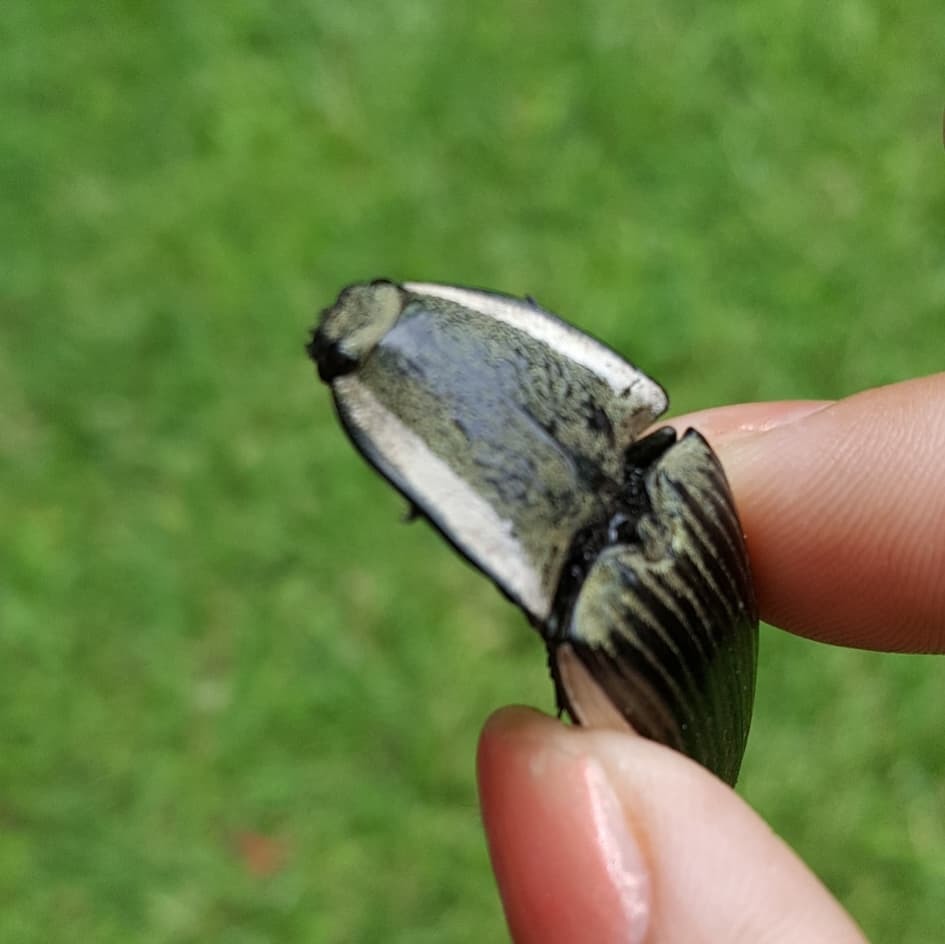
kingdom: Animalia
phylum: Arthropoda
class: Insecta
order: Coleoptera
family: Elateridae
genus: Chalcolepidius
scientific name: Chalcolepidius
